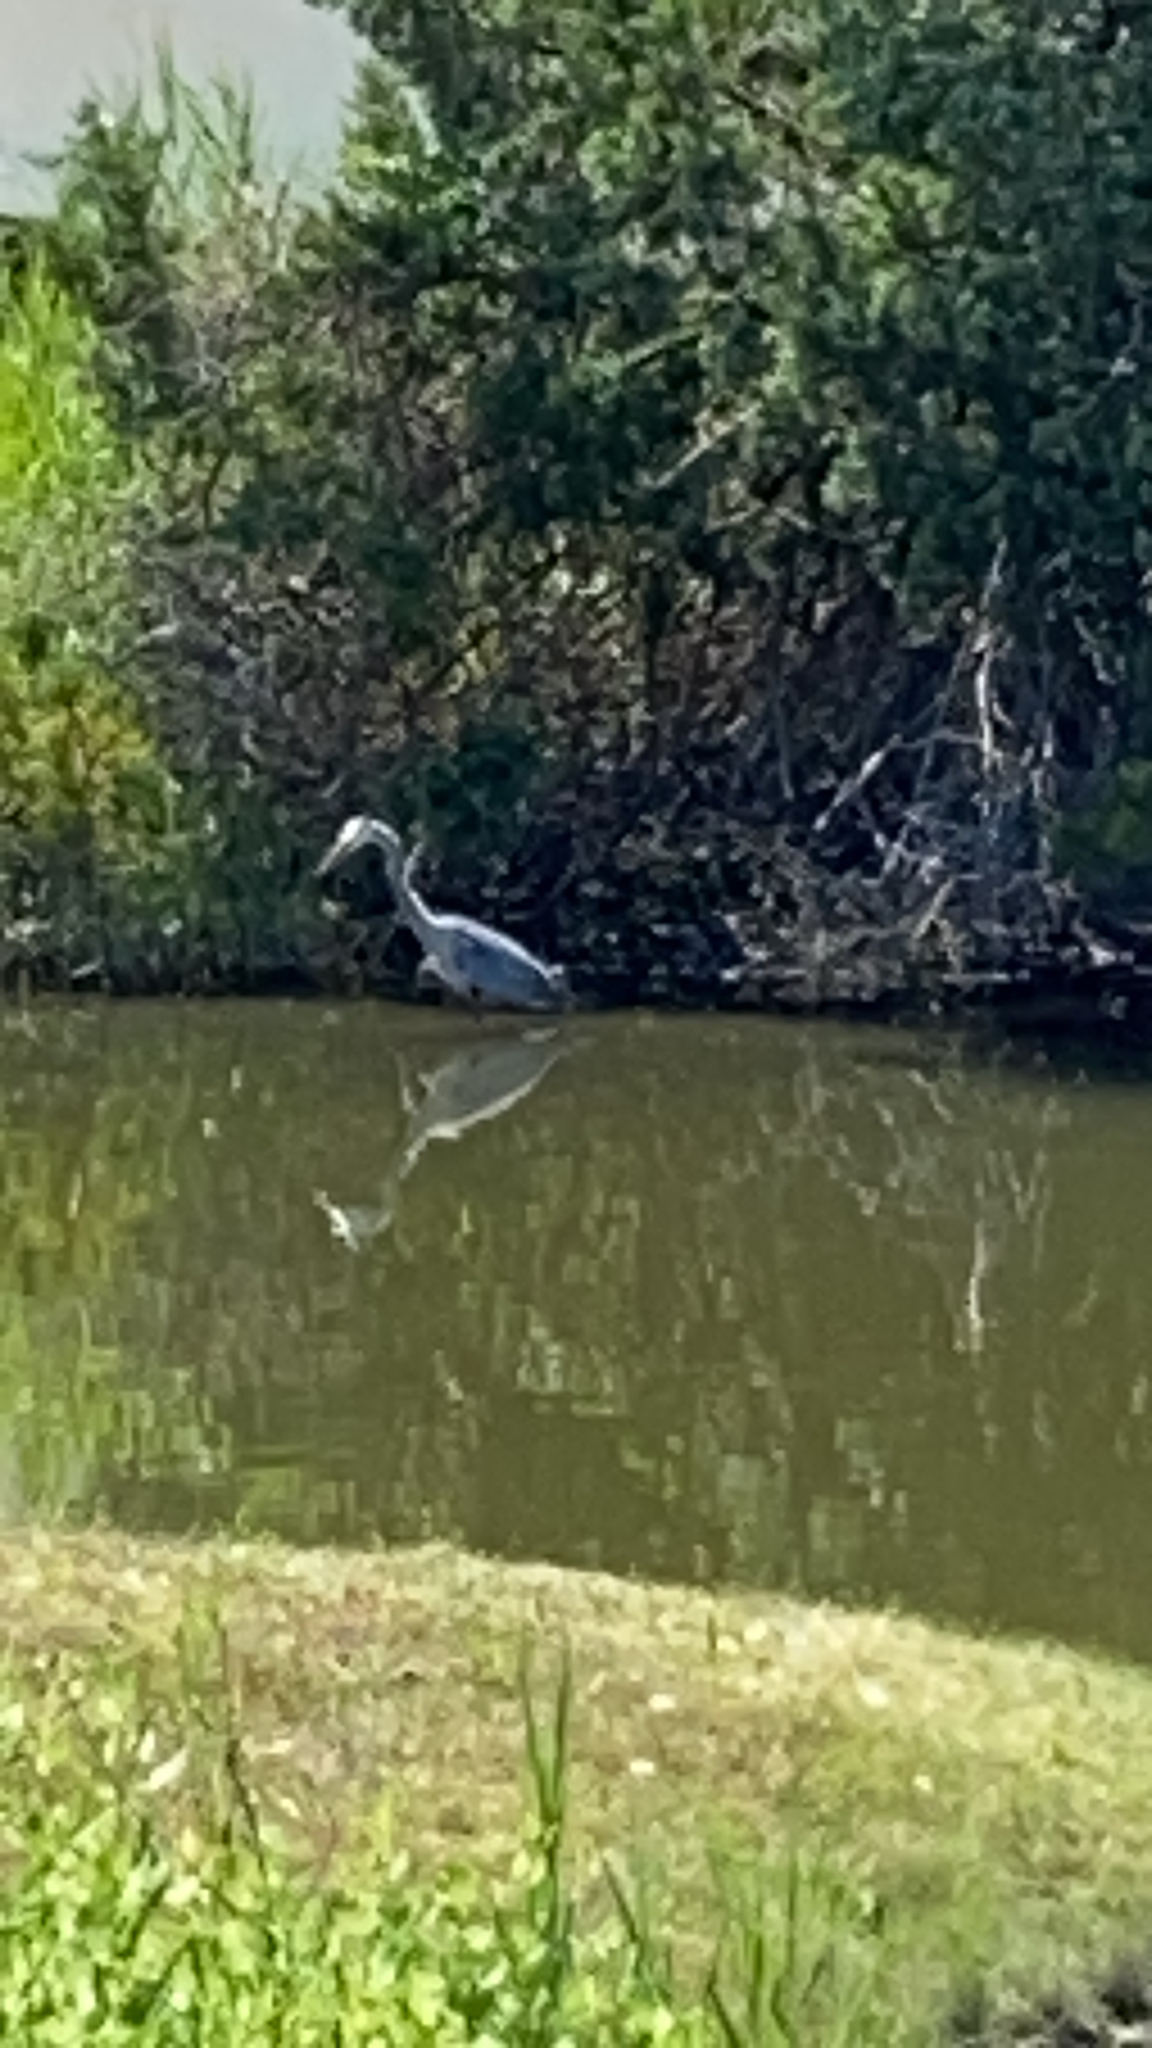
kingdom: Animalia
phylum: Chordata
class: Aves
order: Pelecaniformes
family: Ardeidae
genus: Ardea
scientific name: Ardea herodias
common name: Great blue heron
